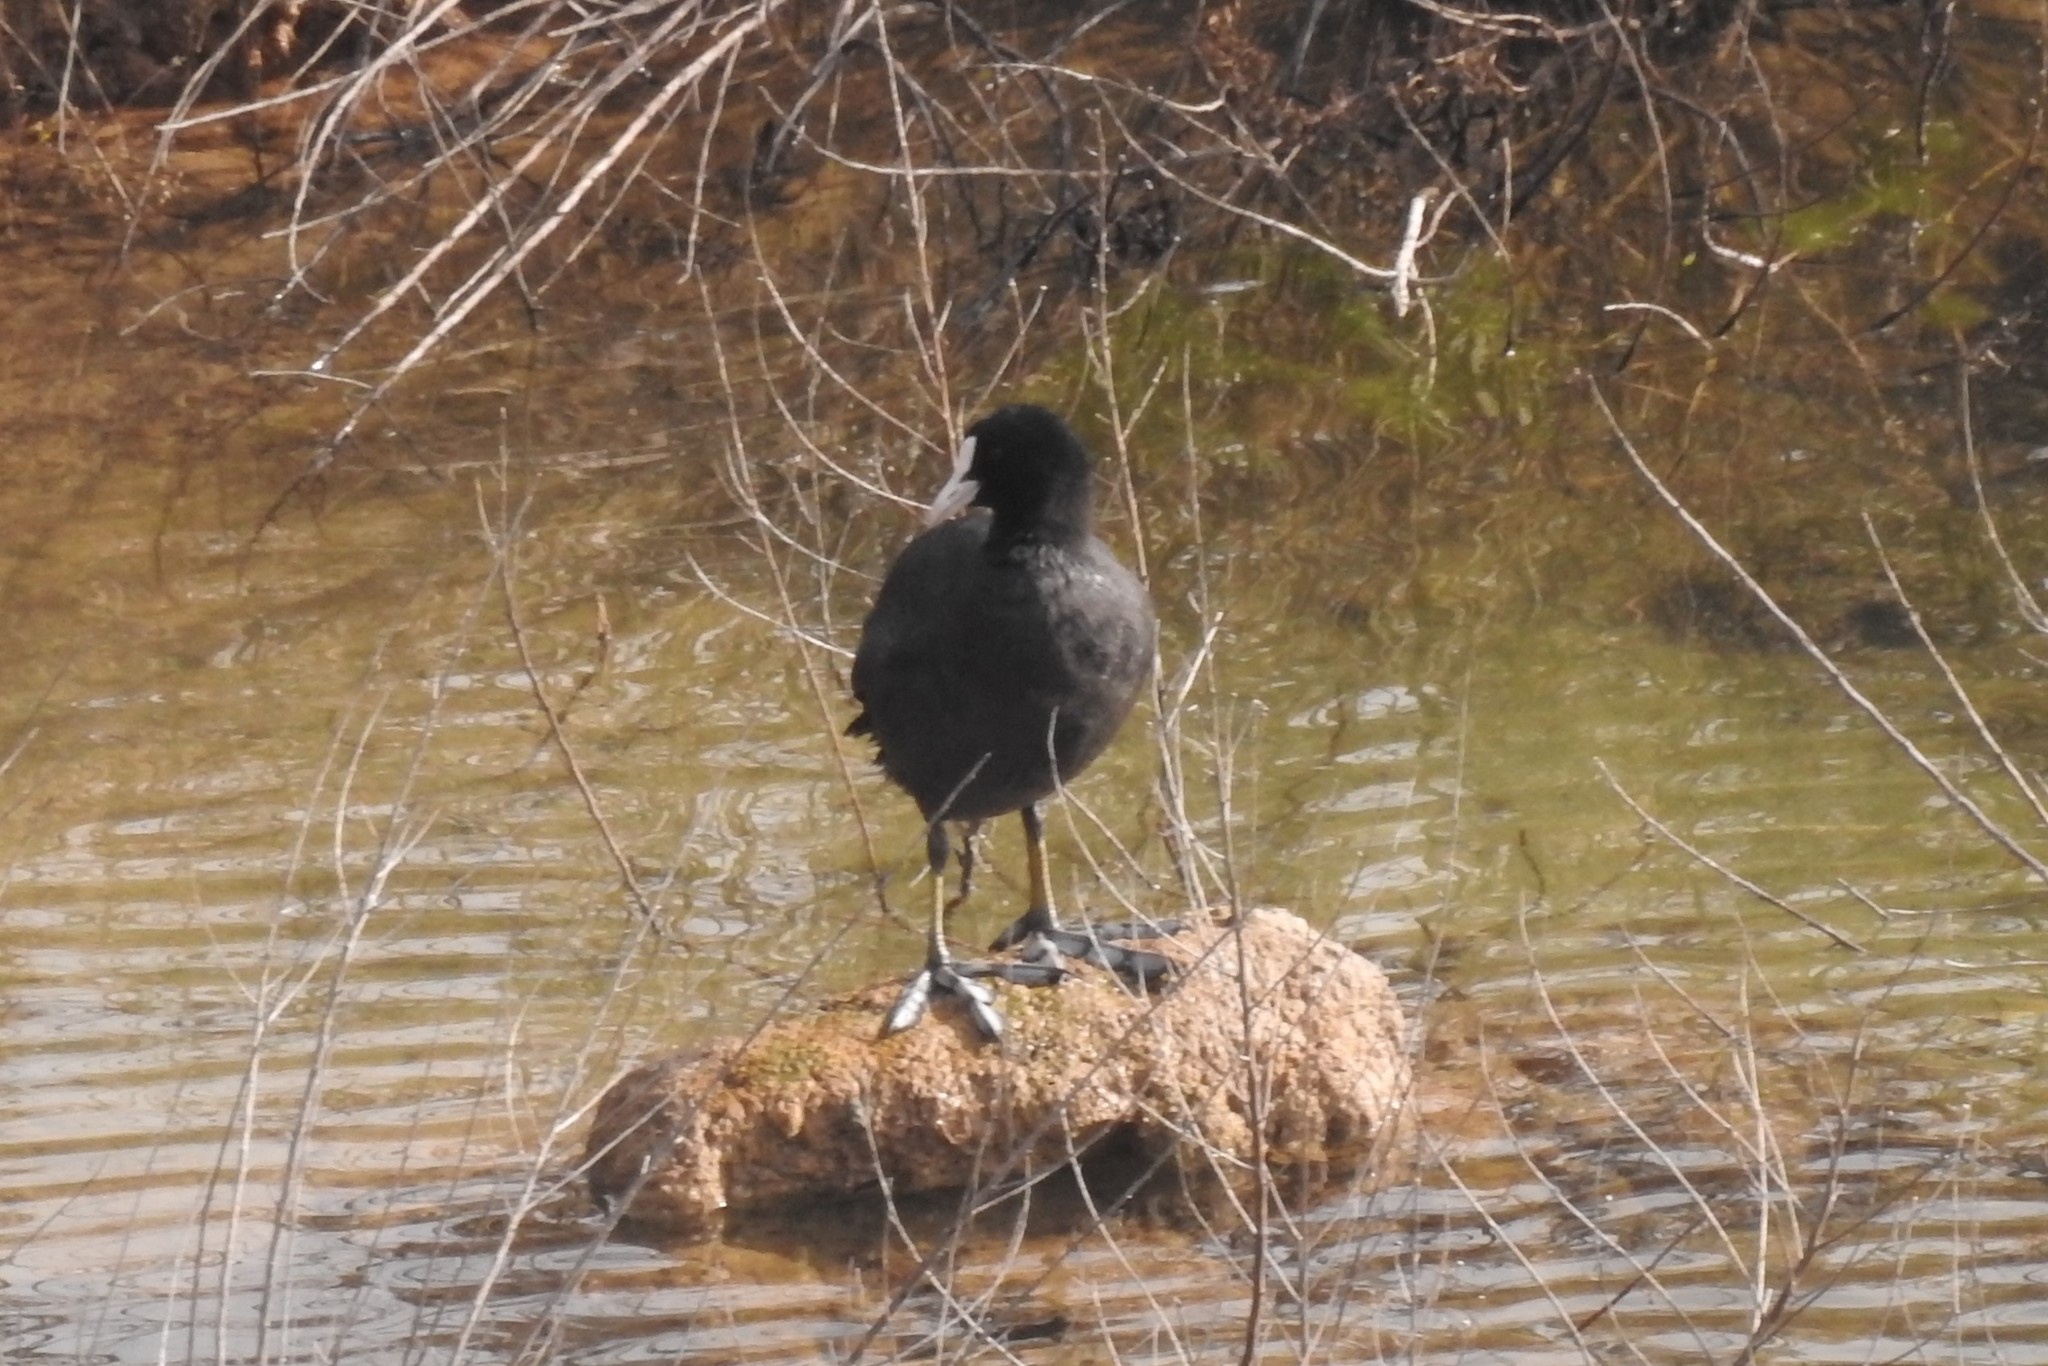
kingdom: Animalia
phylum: Chordata
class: Aves
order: Gruiformes
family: Rallidae
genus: Fulica
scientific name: Fulica atra
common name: Eurasian coot
